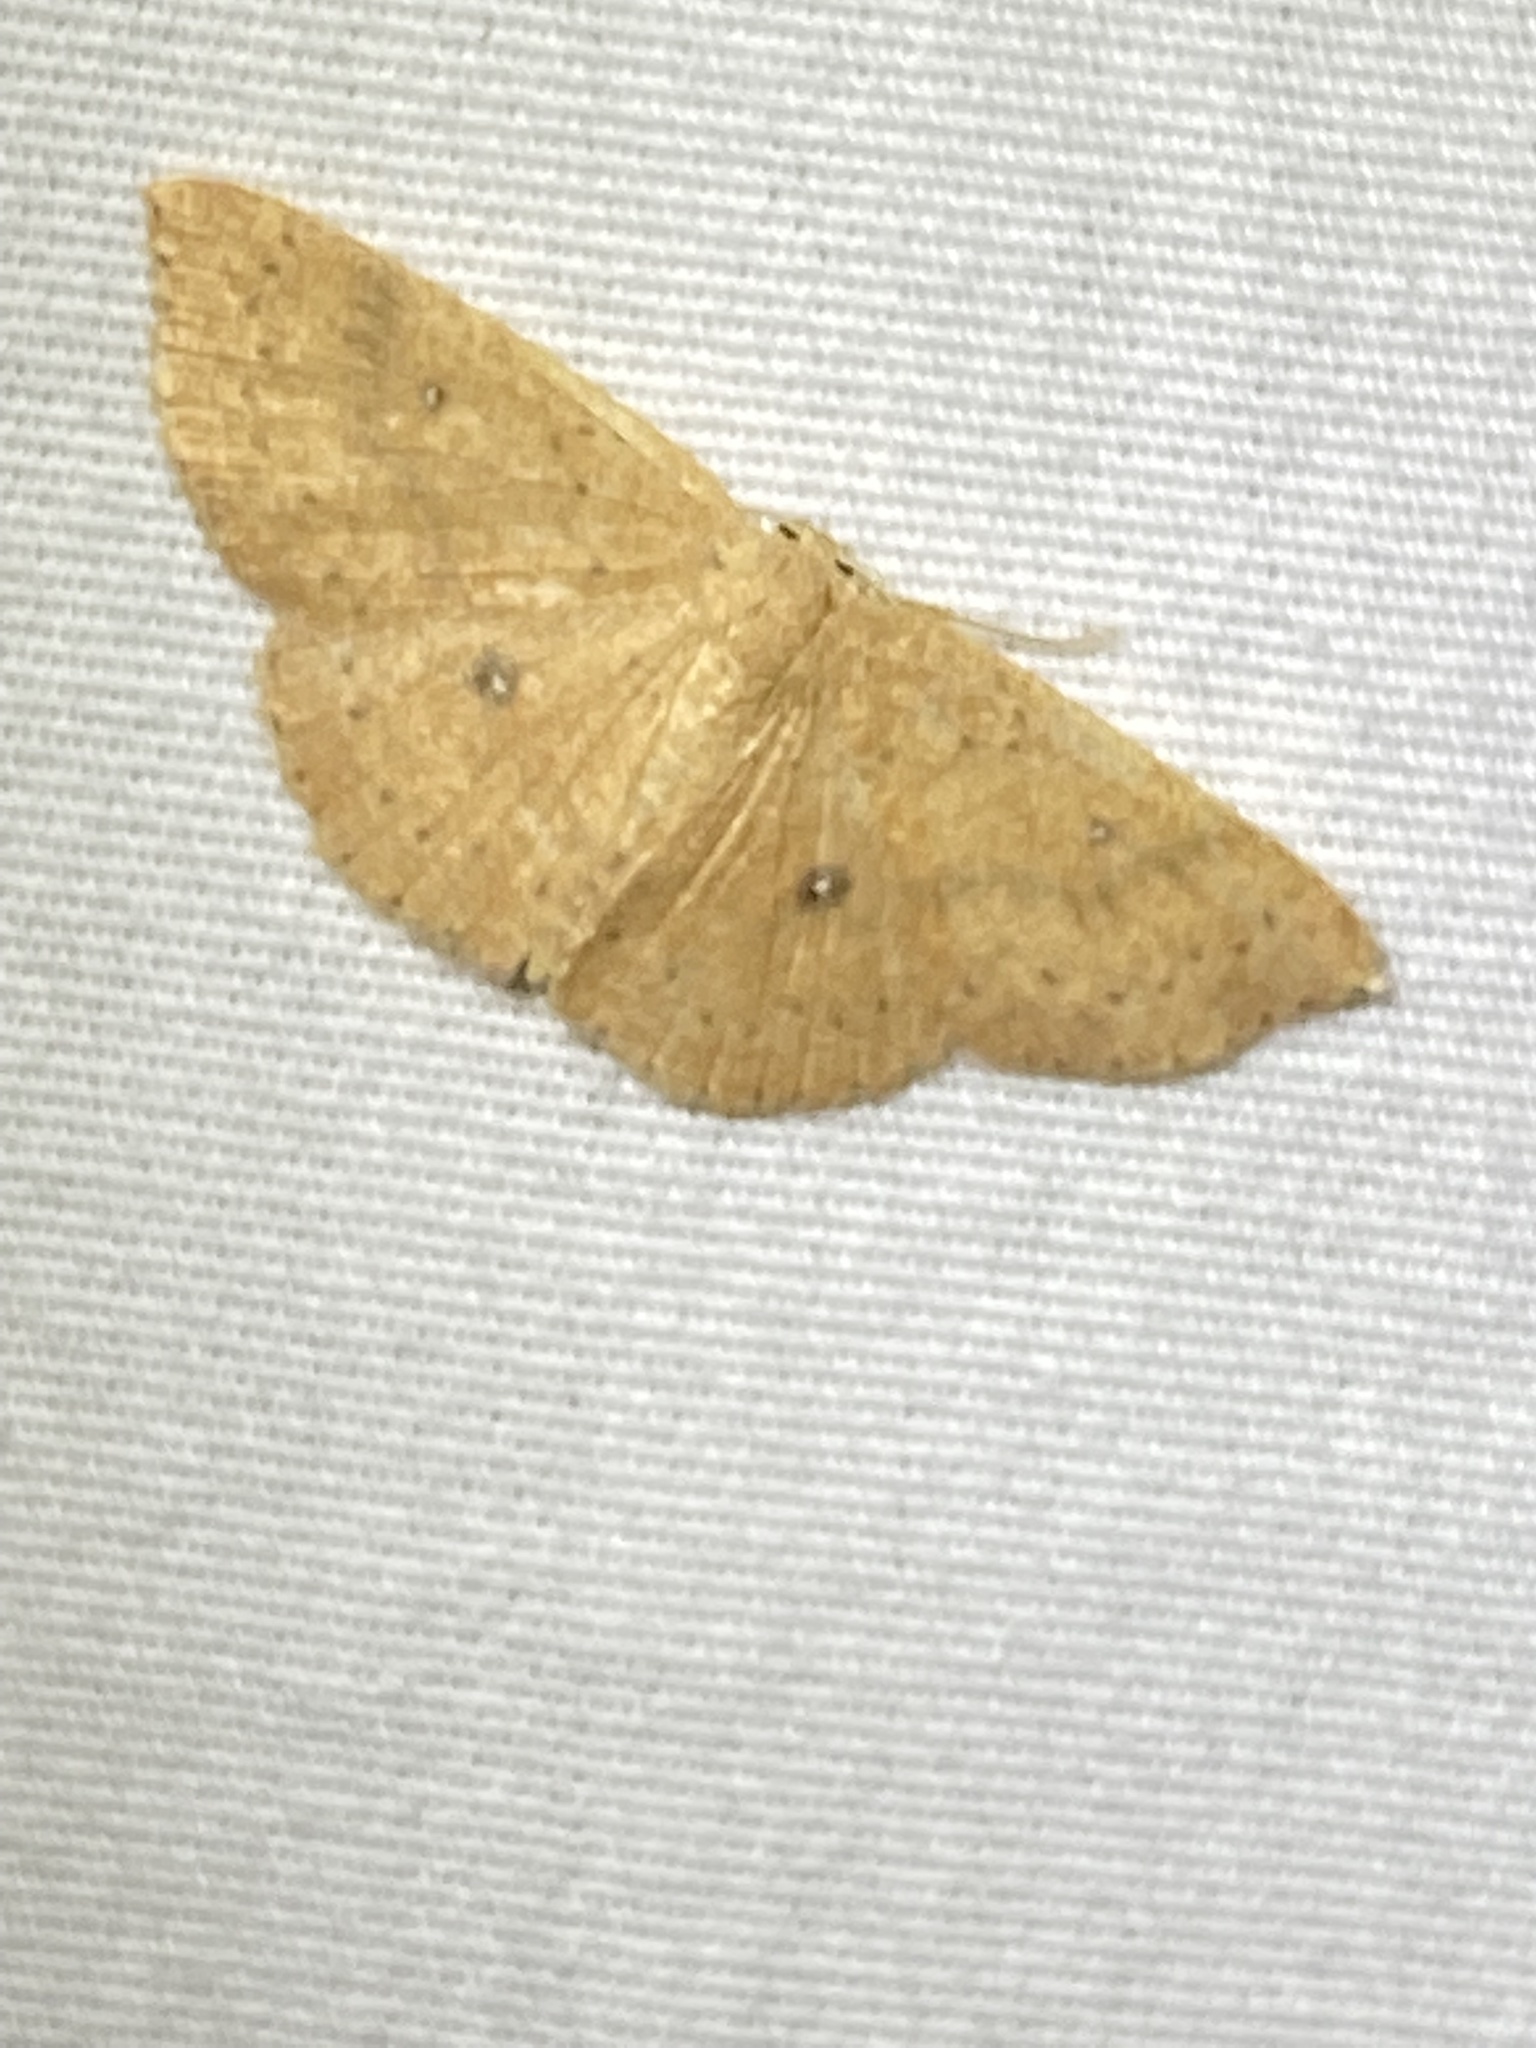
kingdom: Animalia
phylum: Arthropoda
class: Insecta
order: Lepidoptera
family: Geometridae
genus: Cyclophora
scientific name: Cyclophora packardi
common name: Packard's wave
